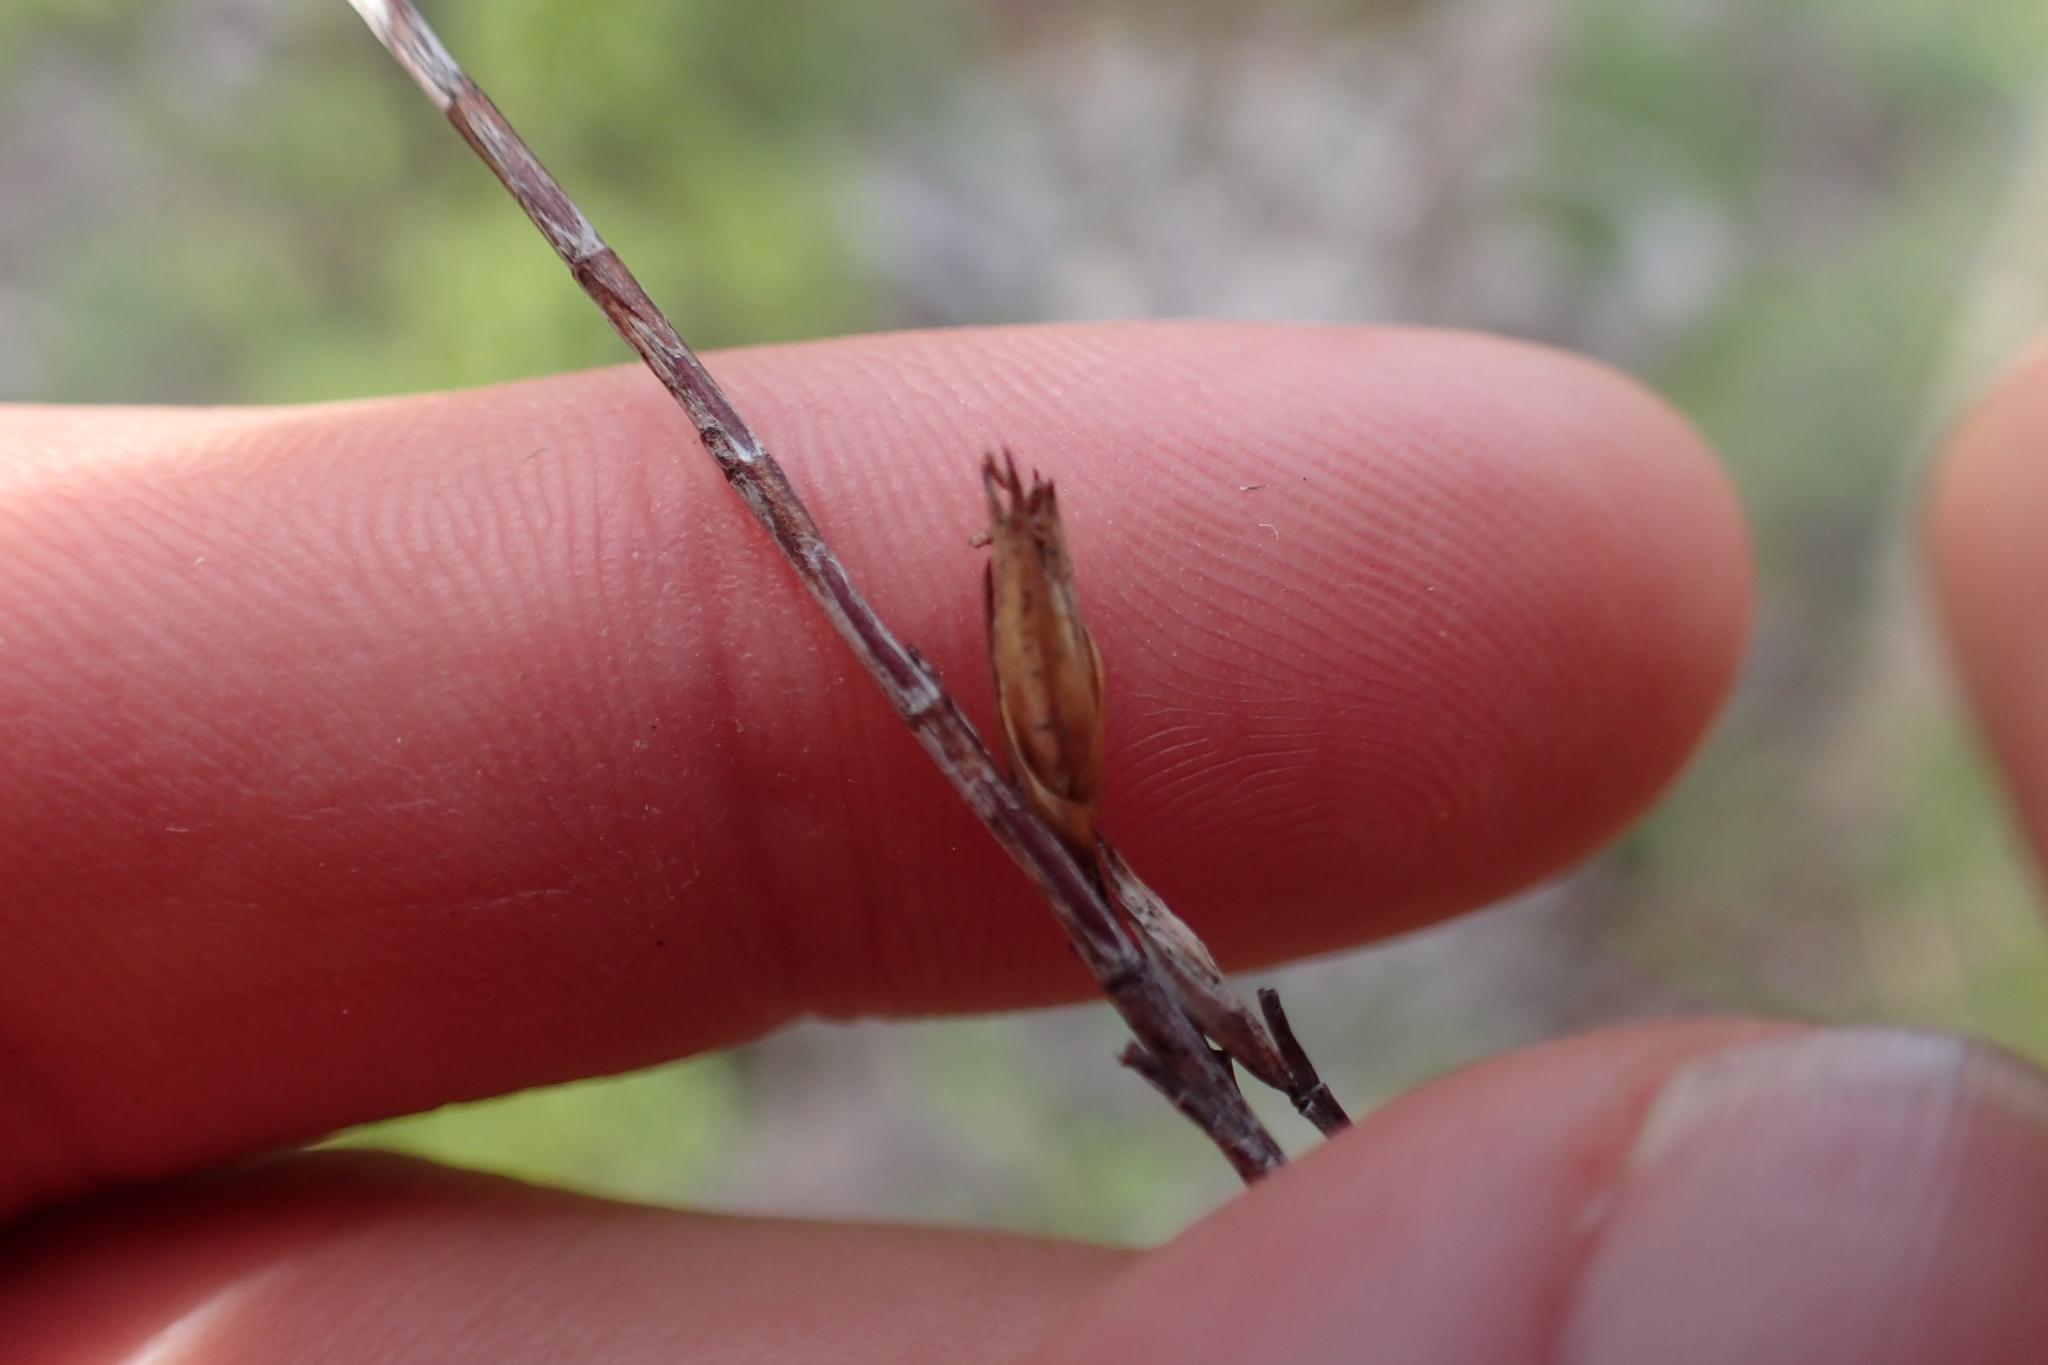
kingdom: Plantae
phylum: Tracheophyta
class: Magnoliopsida
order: Ericales
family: Ericaceae
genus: Dracophyllum
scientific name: Dracophyllum lessonianum
